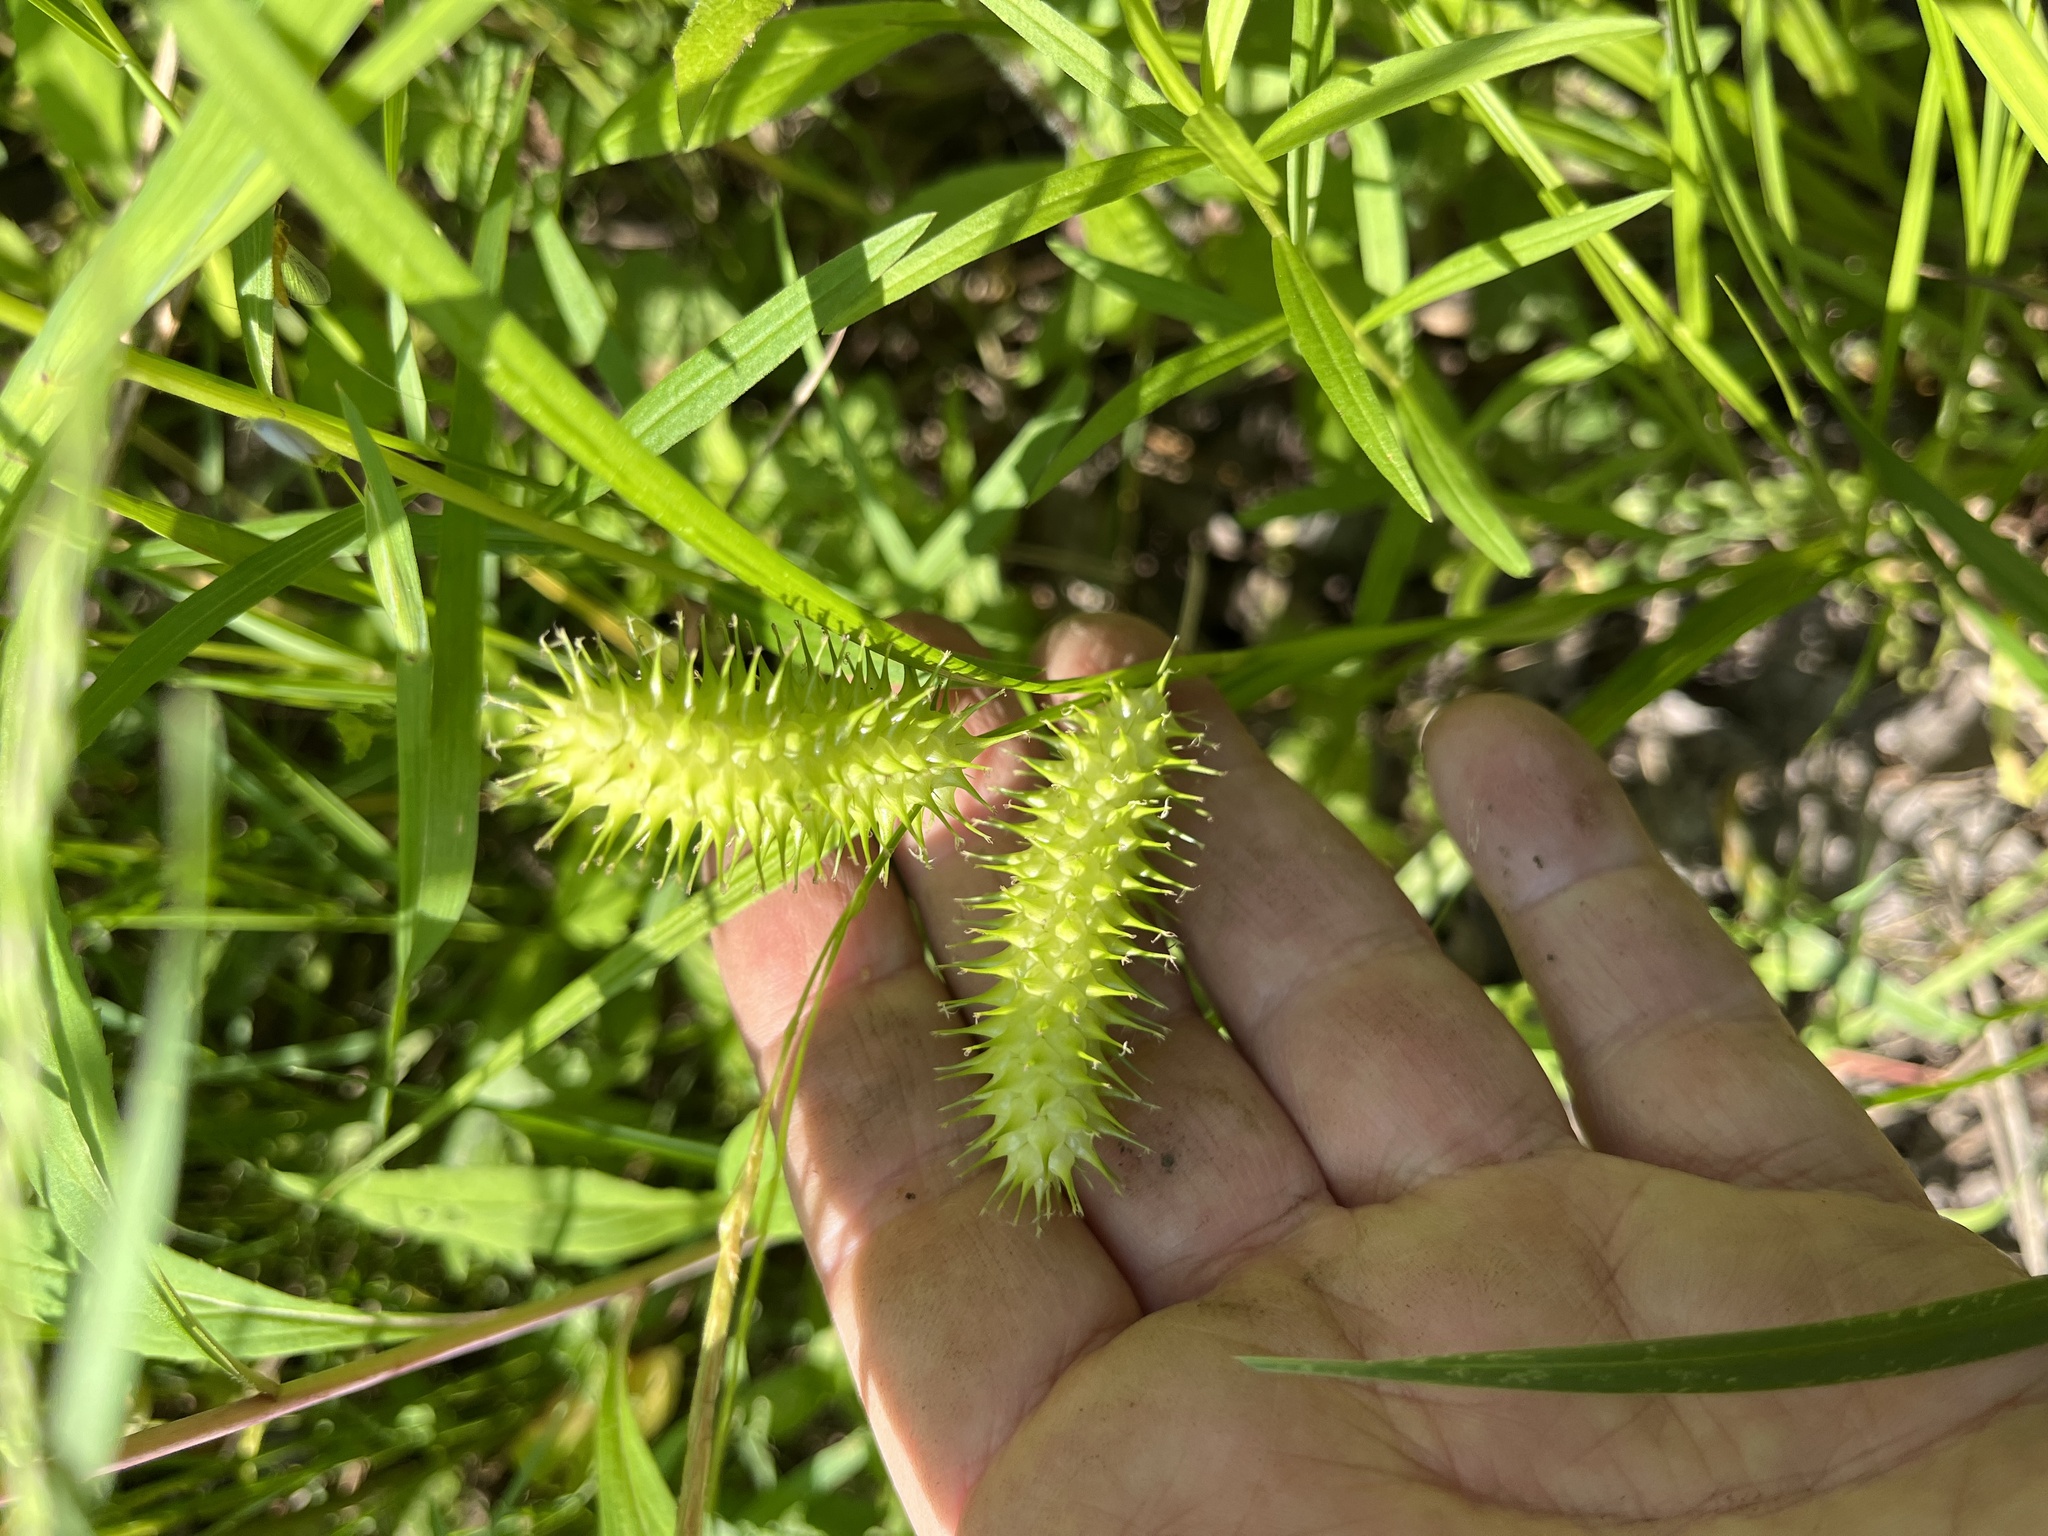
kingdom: Plantae
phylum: Tracheophyta
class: Liliopsida
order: Poales
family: Cyperaceae
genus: Carex
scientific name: Carex lurida
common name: Sallow sedge
